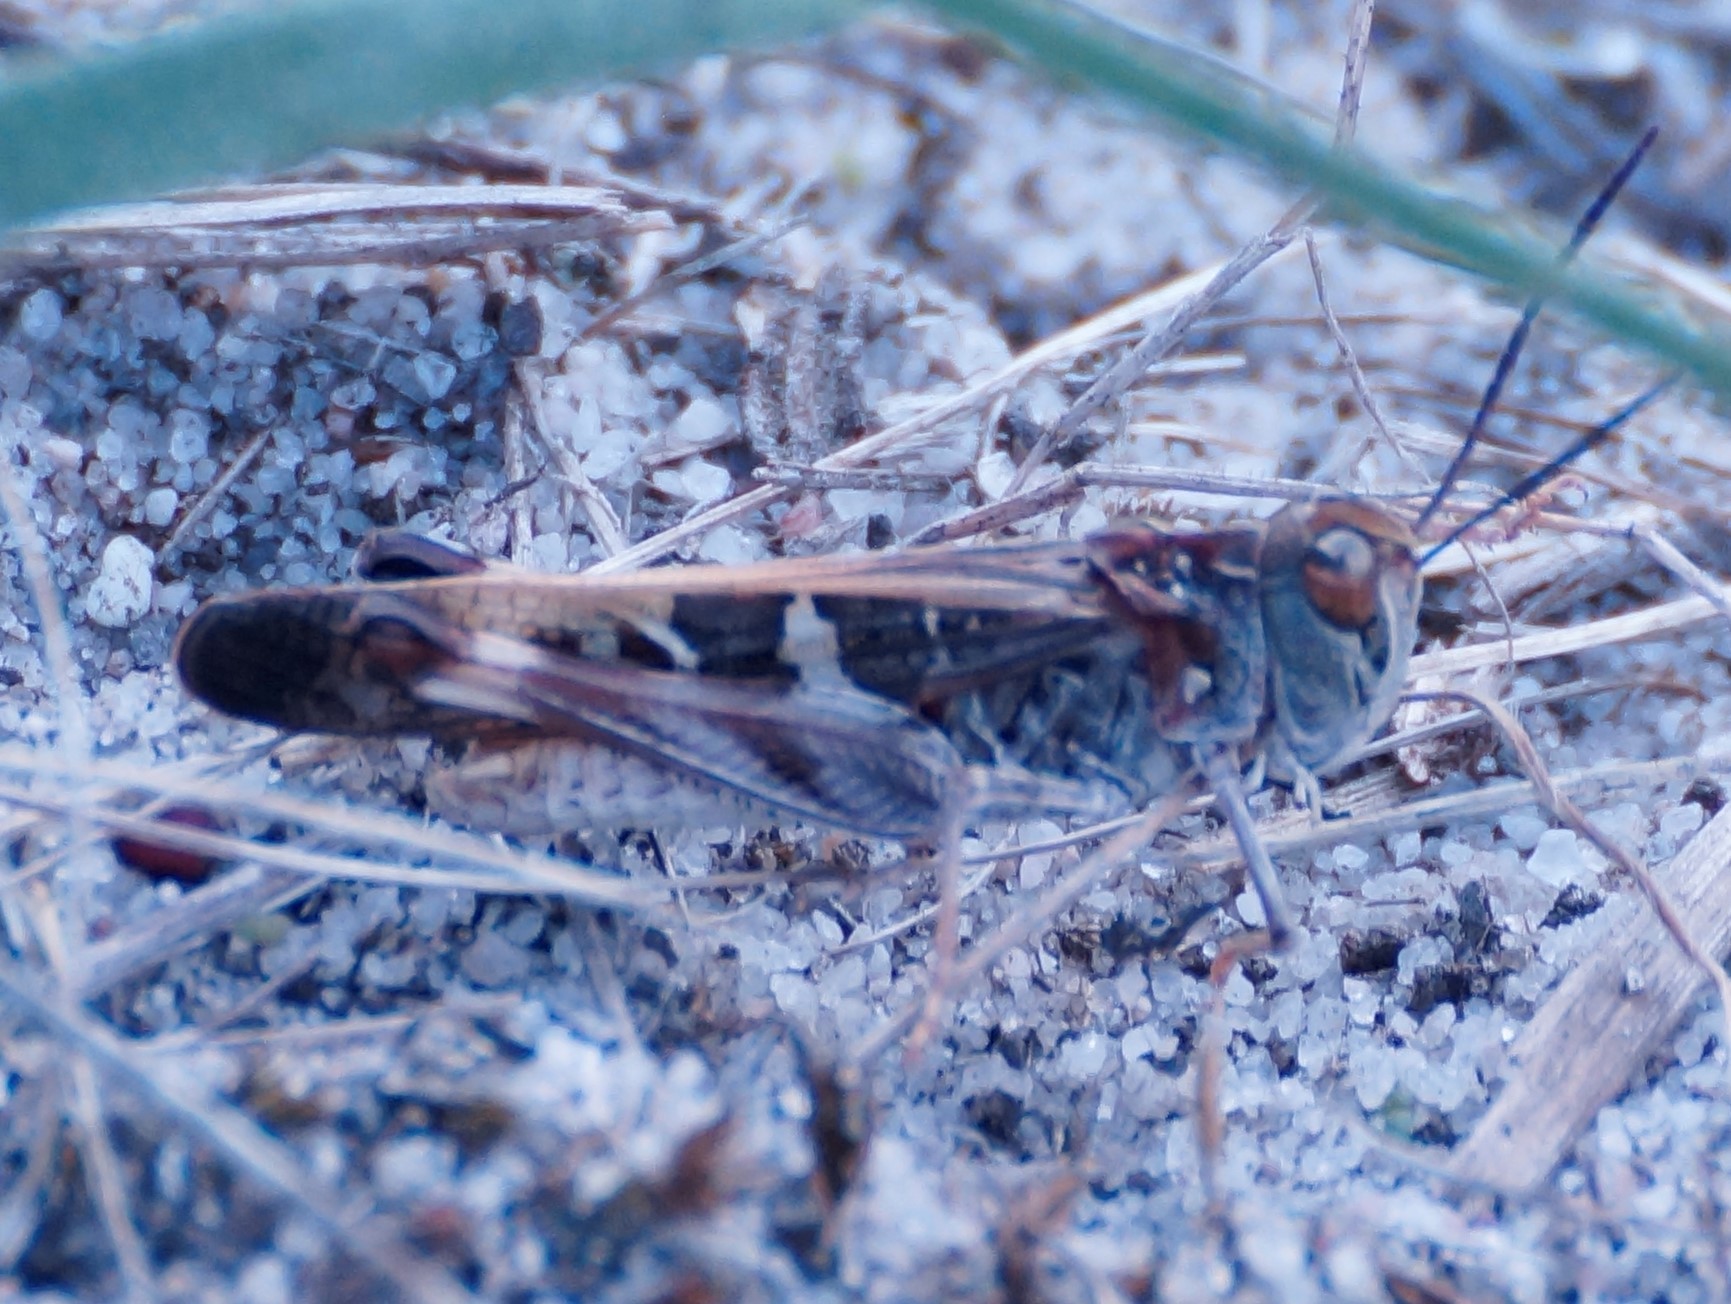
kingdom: Animalia
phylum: Arthropoda
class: Insecta
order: Orthoptera
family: Acrididae
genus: Oedaleus
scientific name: Oedaleus australis
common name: Eastern oedaleus
